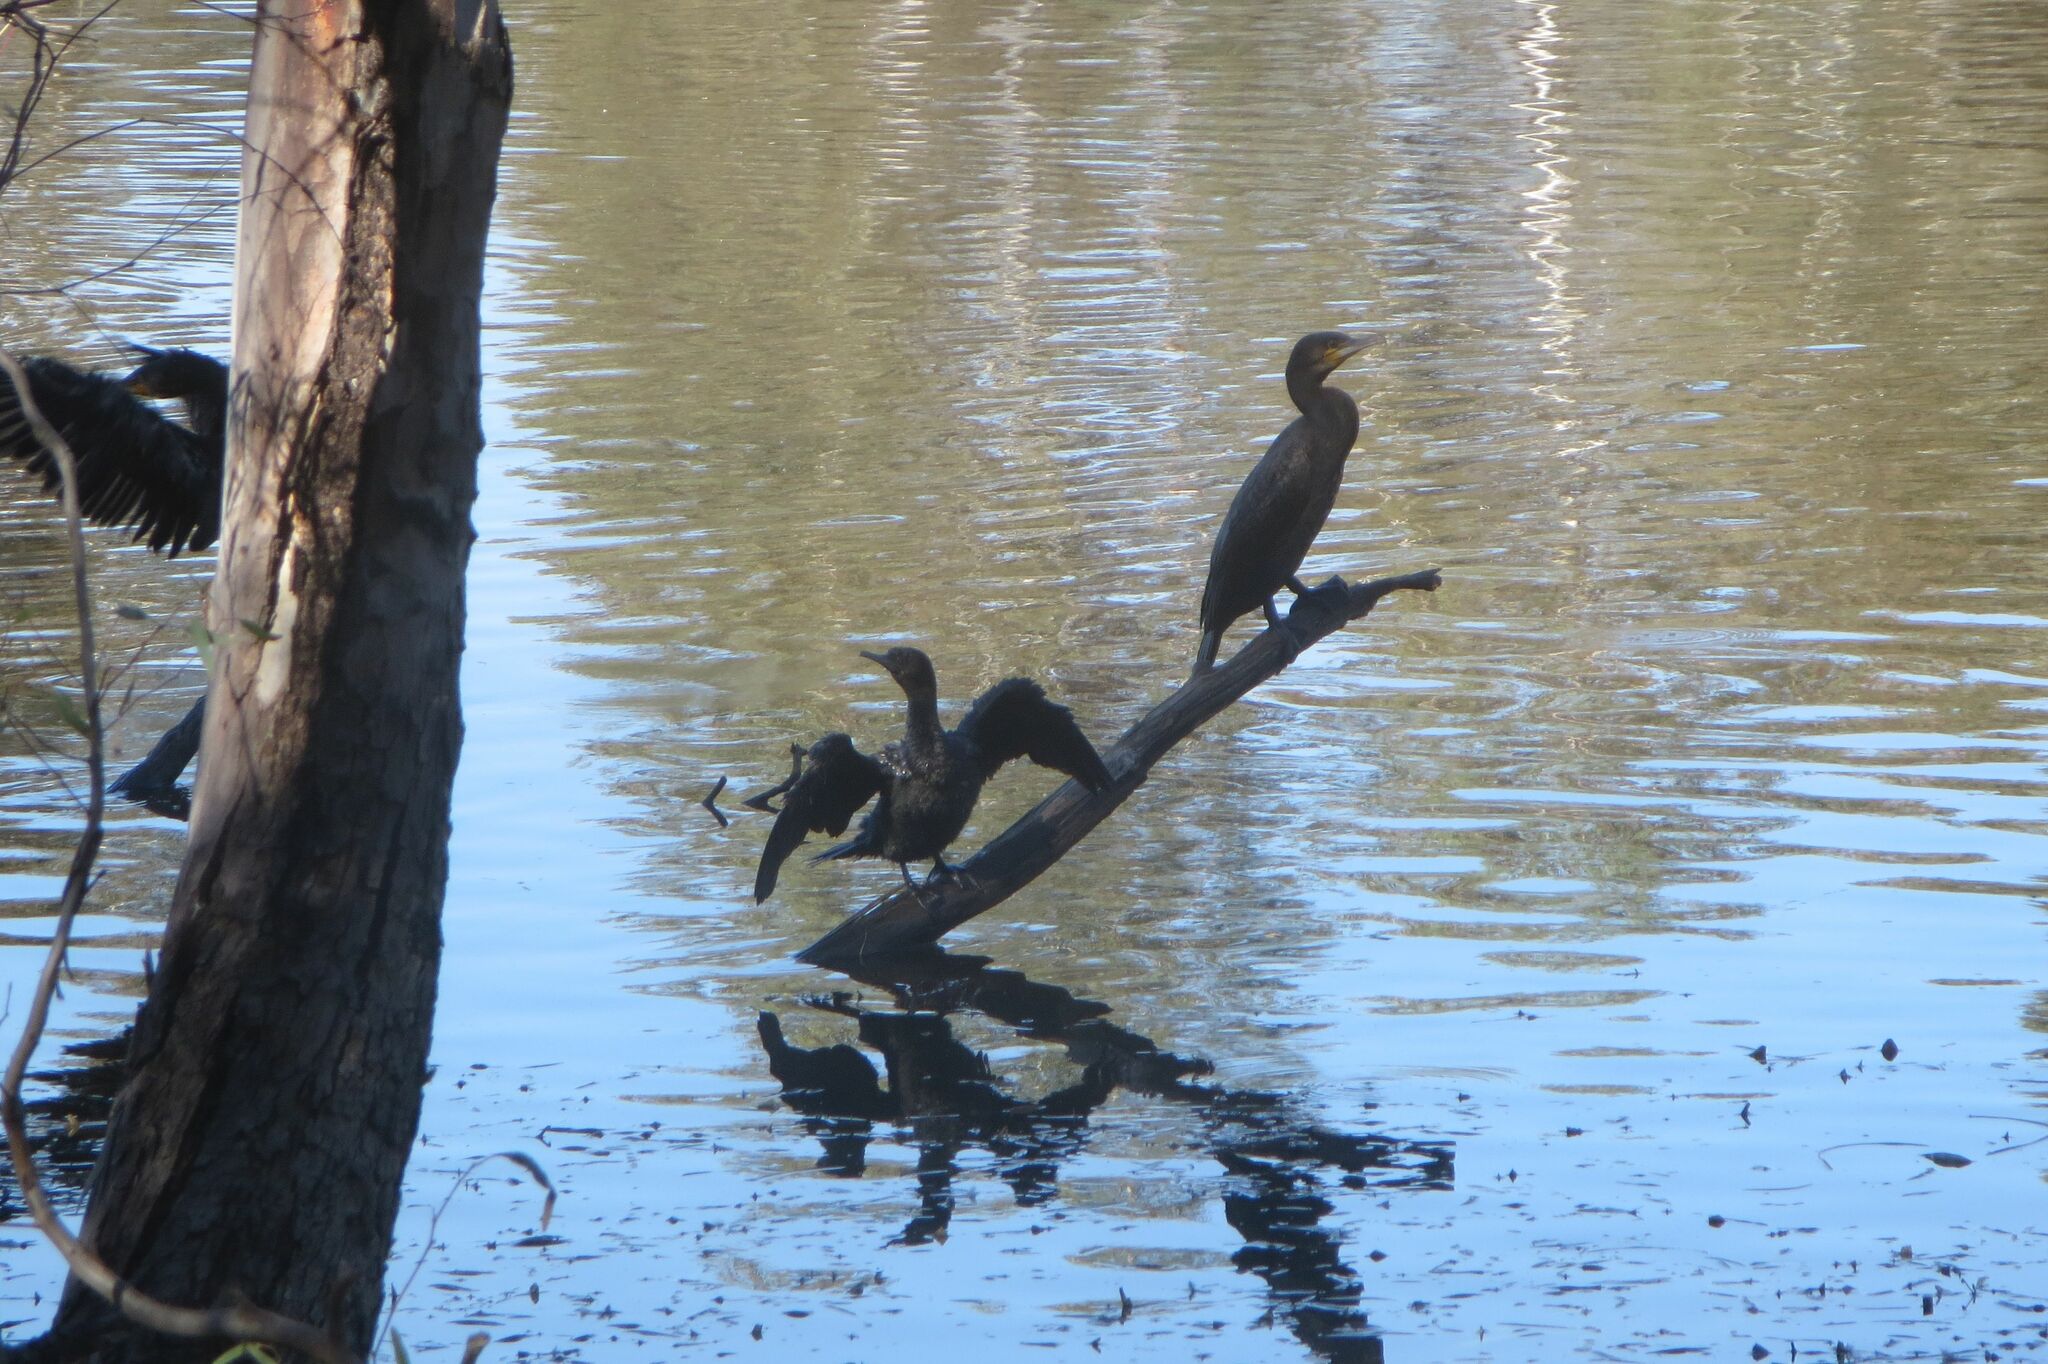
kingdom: Animalia
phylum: Chordata
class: Aves
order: Suliformes
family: Phalacrocoracidae
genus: Phalacrocorax
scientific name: Phalacrocorax sulcirostris
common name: Little black cormorant
